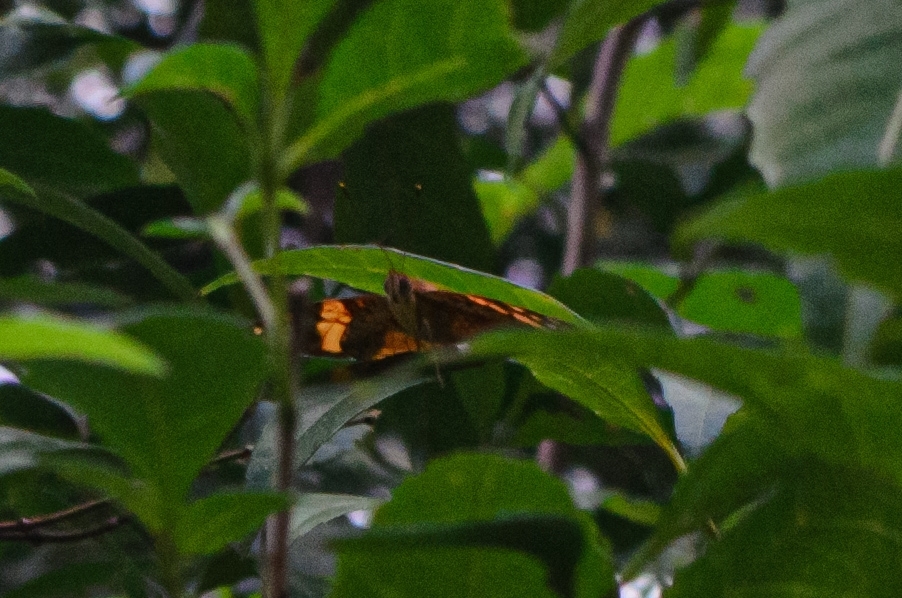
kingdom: Animalia
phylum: Arthropoda
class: Insecta
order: Lepidoptera
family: Nymphalidae
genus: Hypanartia
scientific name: Hypanartia lethe
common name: Orange mapwing
